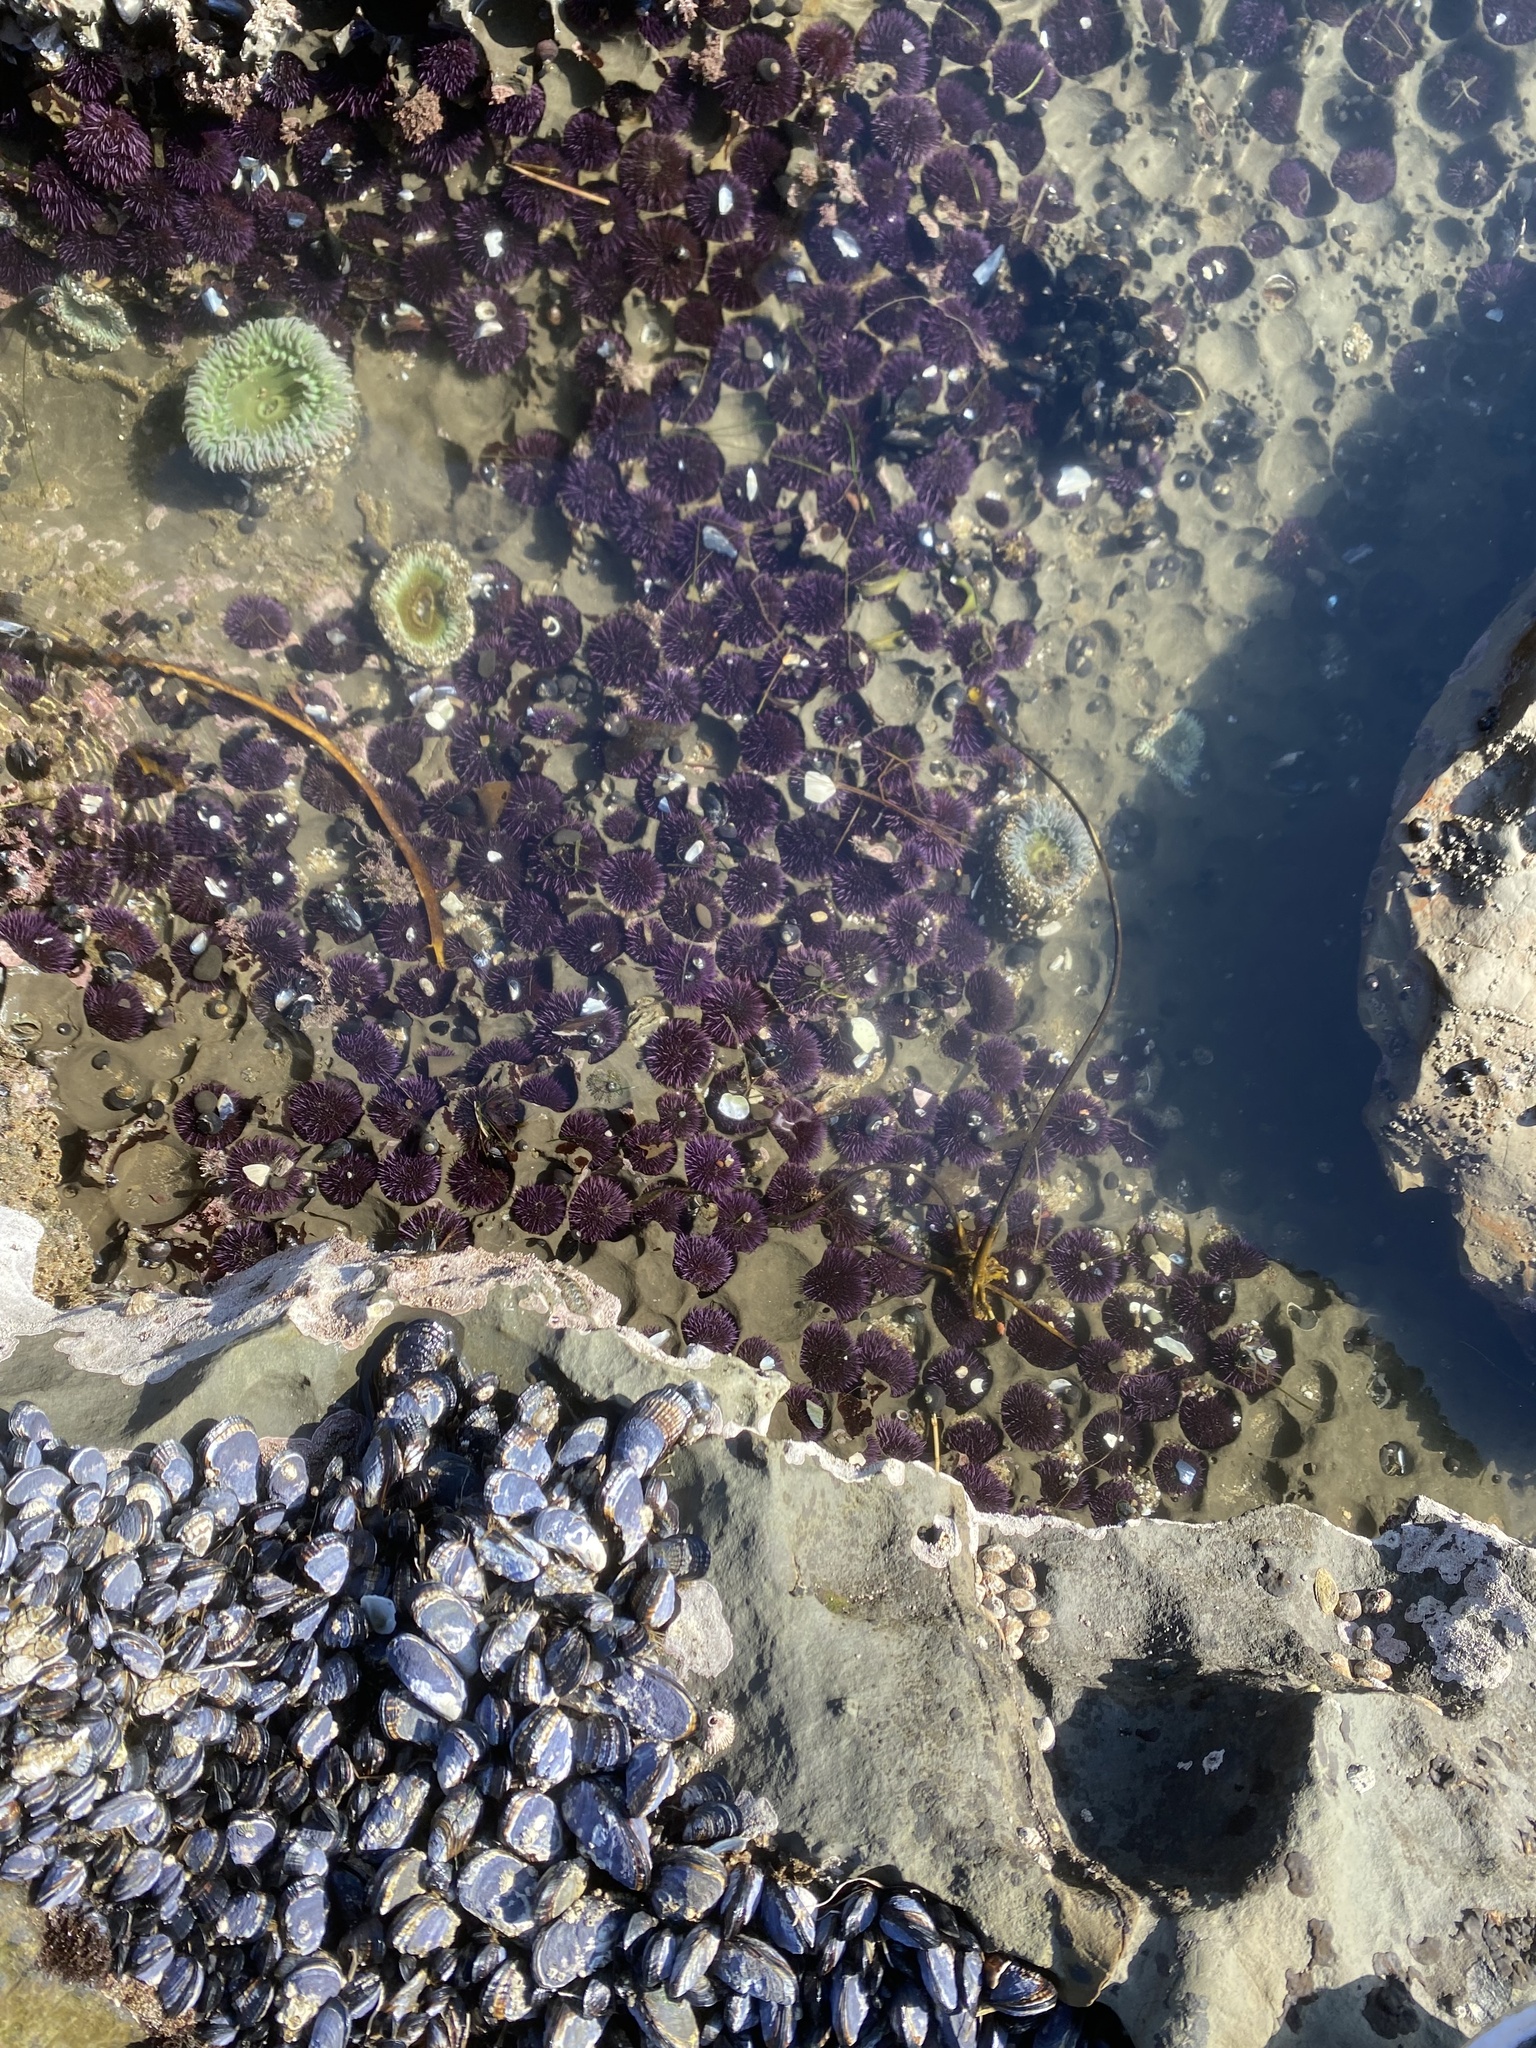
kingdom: Animalia
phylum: Echinodermata
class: Echinoidea
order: Camarodonta
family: Strongylocentrotidae
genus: Strongylocentrotus
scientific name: Strongylocentrotus purpuratus
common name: Purple sea urchin
